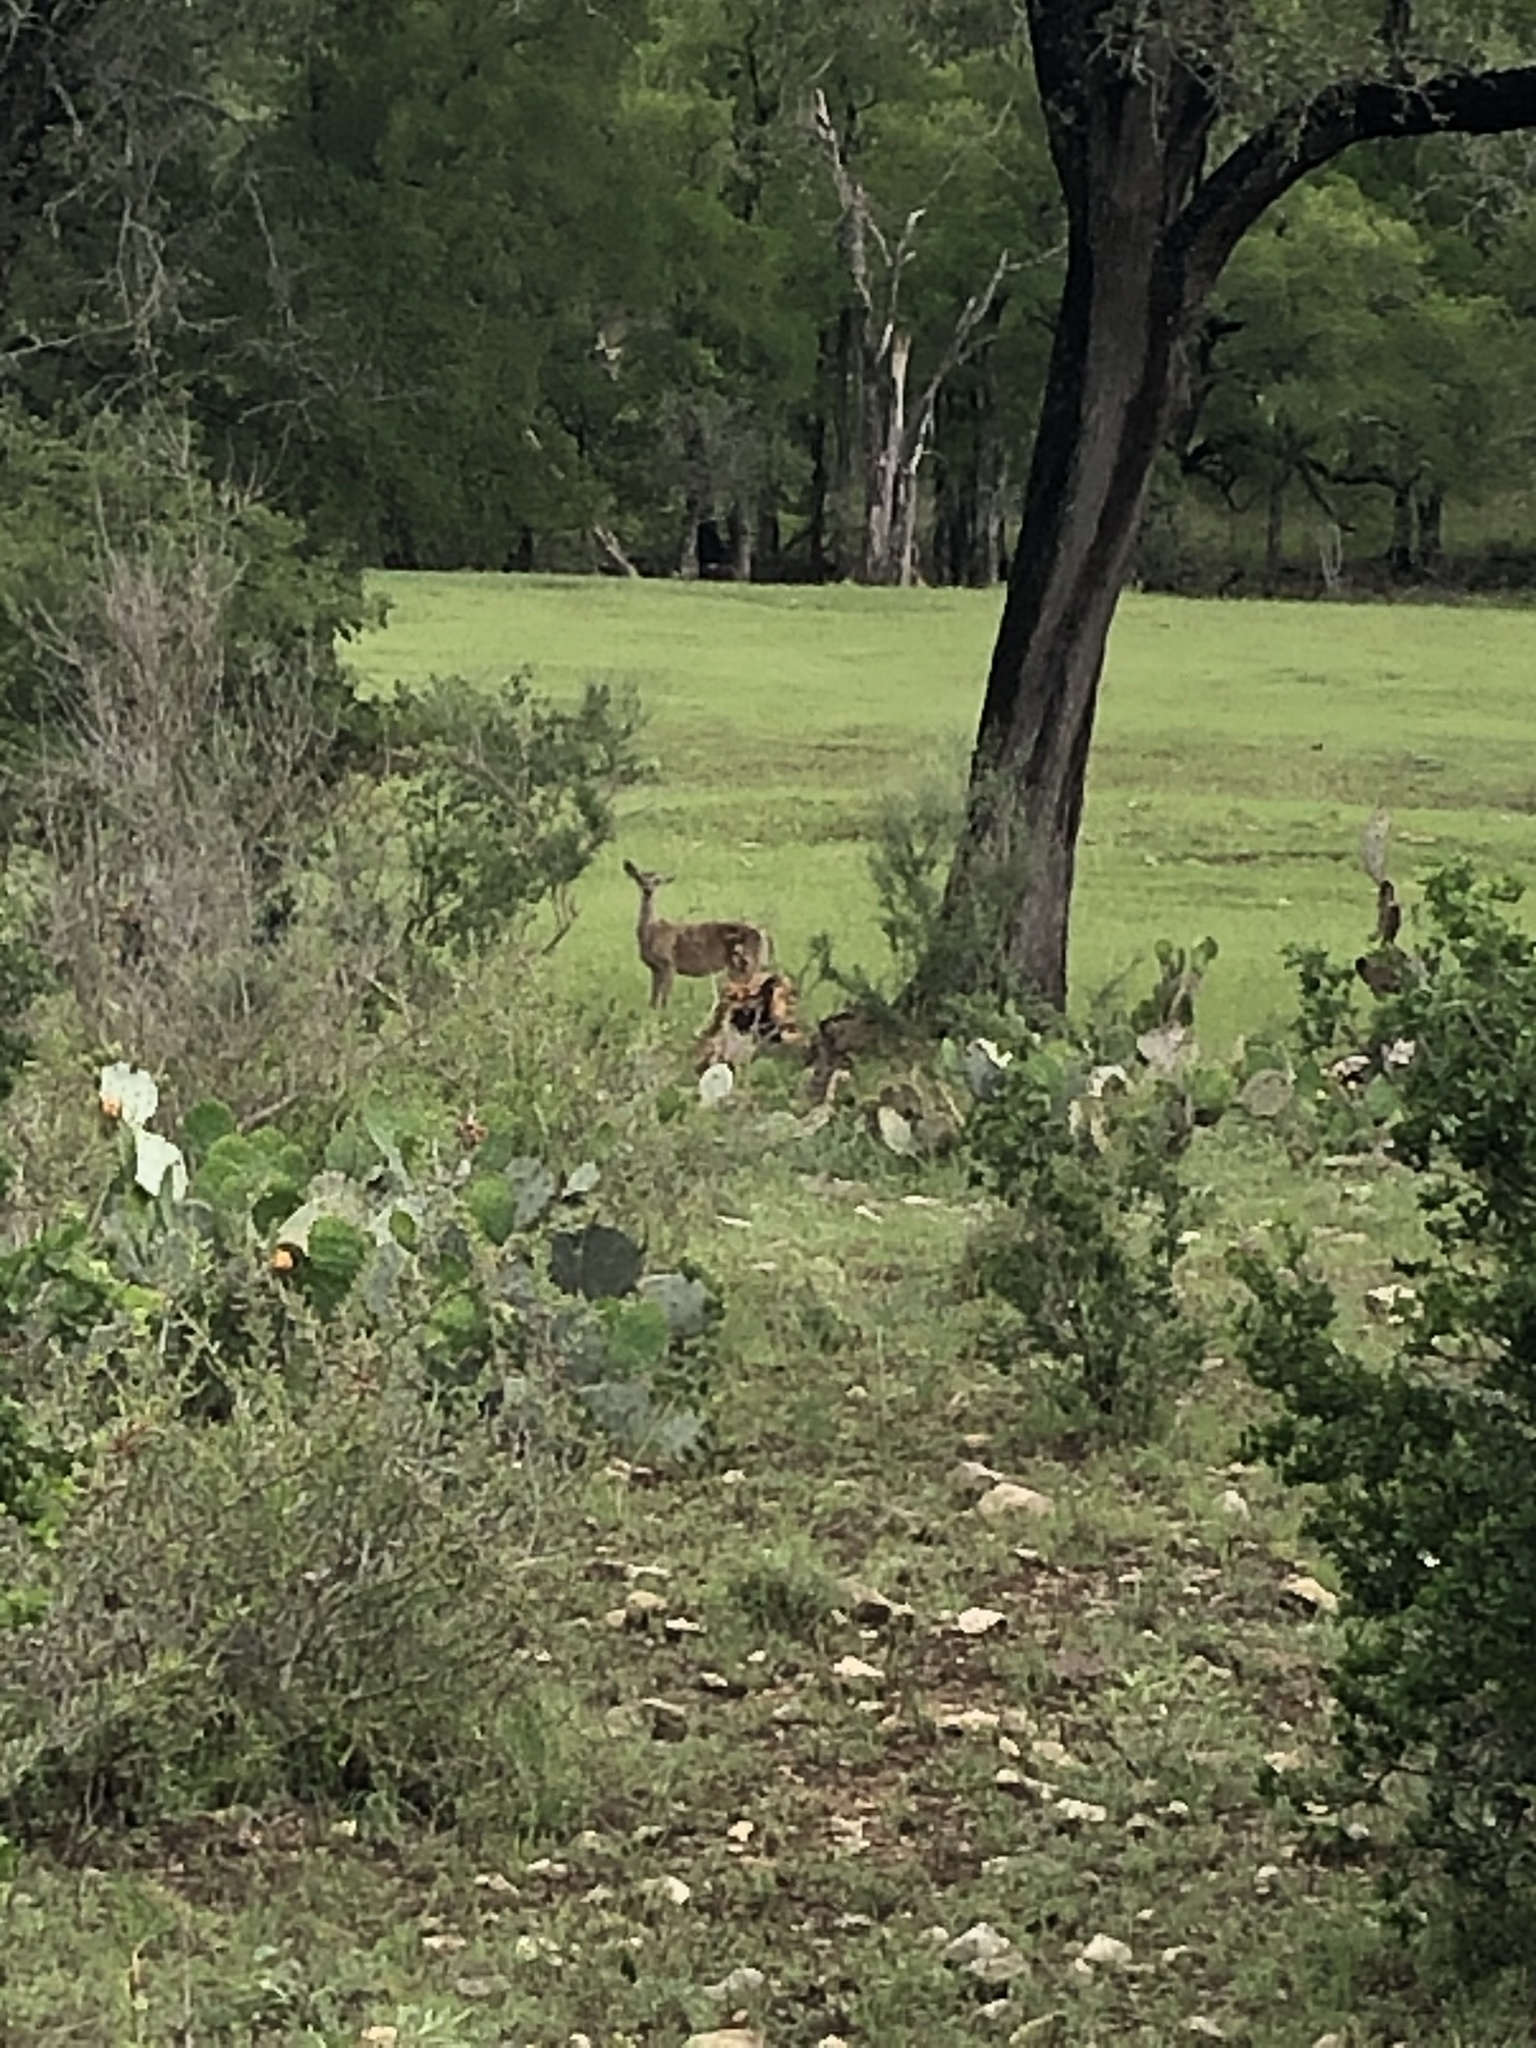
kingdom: Animalia
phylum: Chordata
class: Mammalia
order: Artiodactyla
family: Cervidae
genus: Odocoileus
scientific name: Odocoileus virginianus
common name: White-tailed deer
